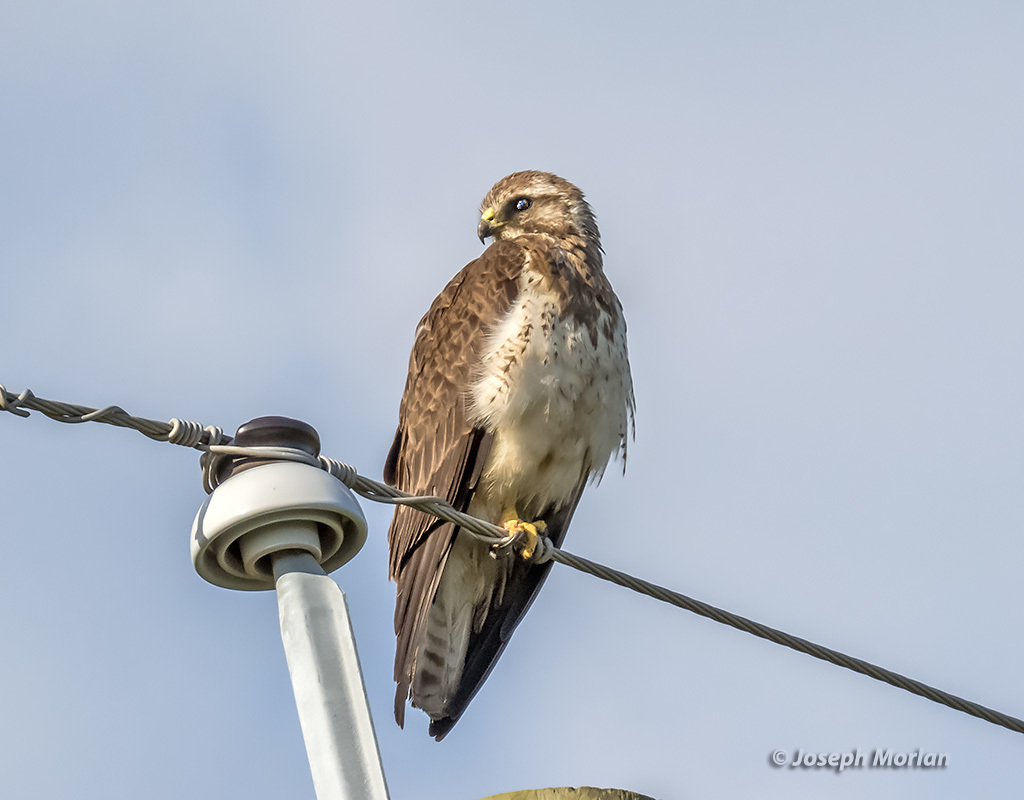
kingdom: Animalia
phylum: Chordata
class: Aves
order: Accipitriformes
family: Accipitridae
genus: Buteo
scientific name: Buteo swainsoni
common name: Swainson's hawk
